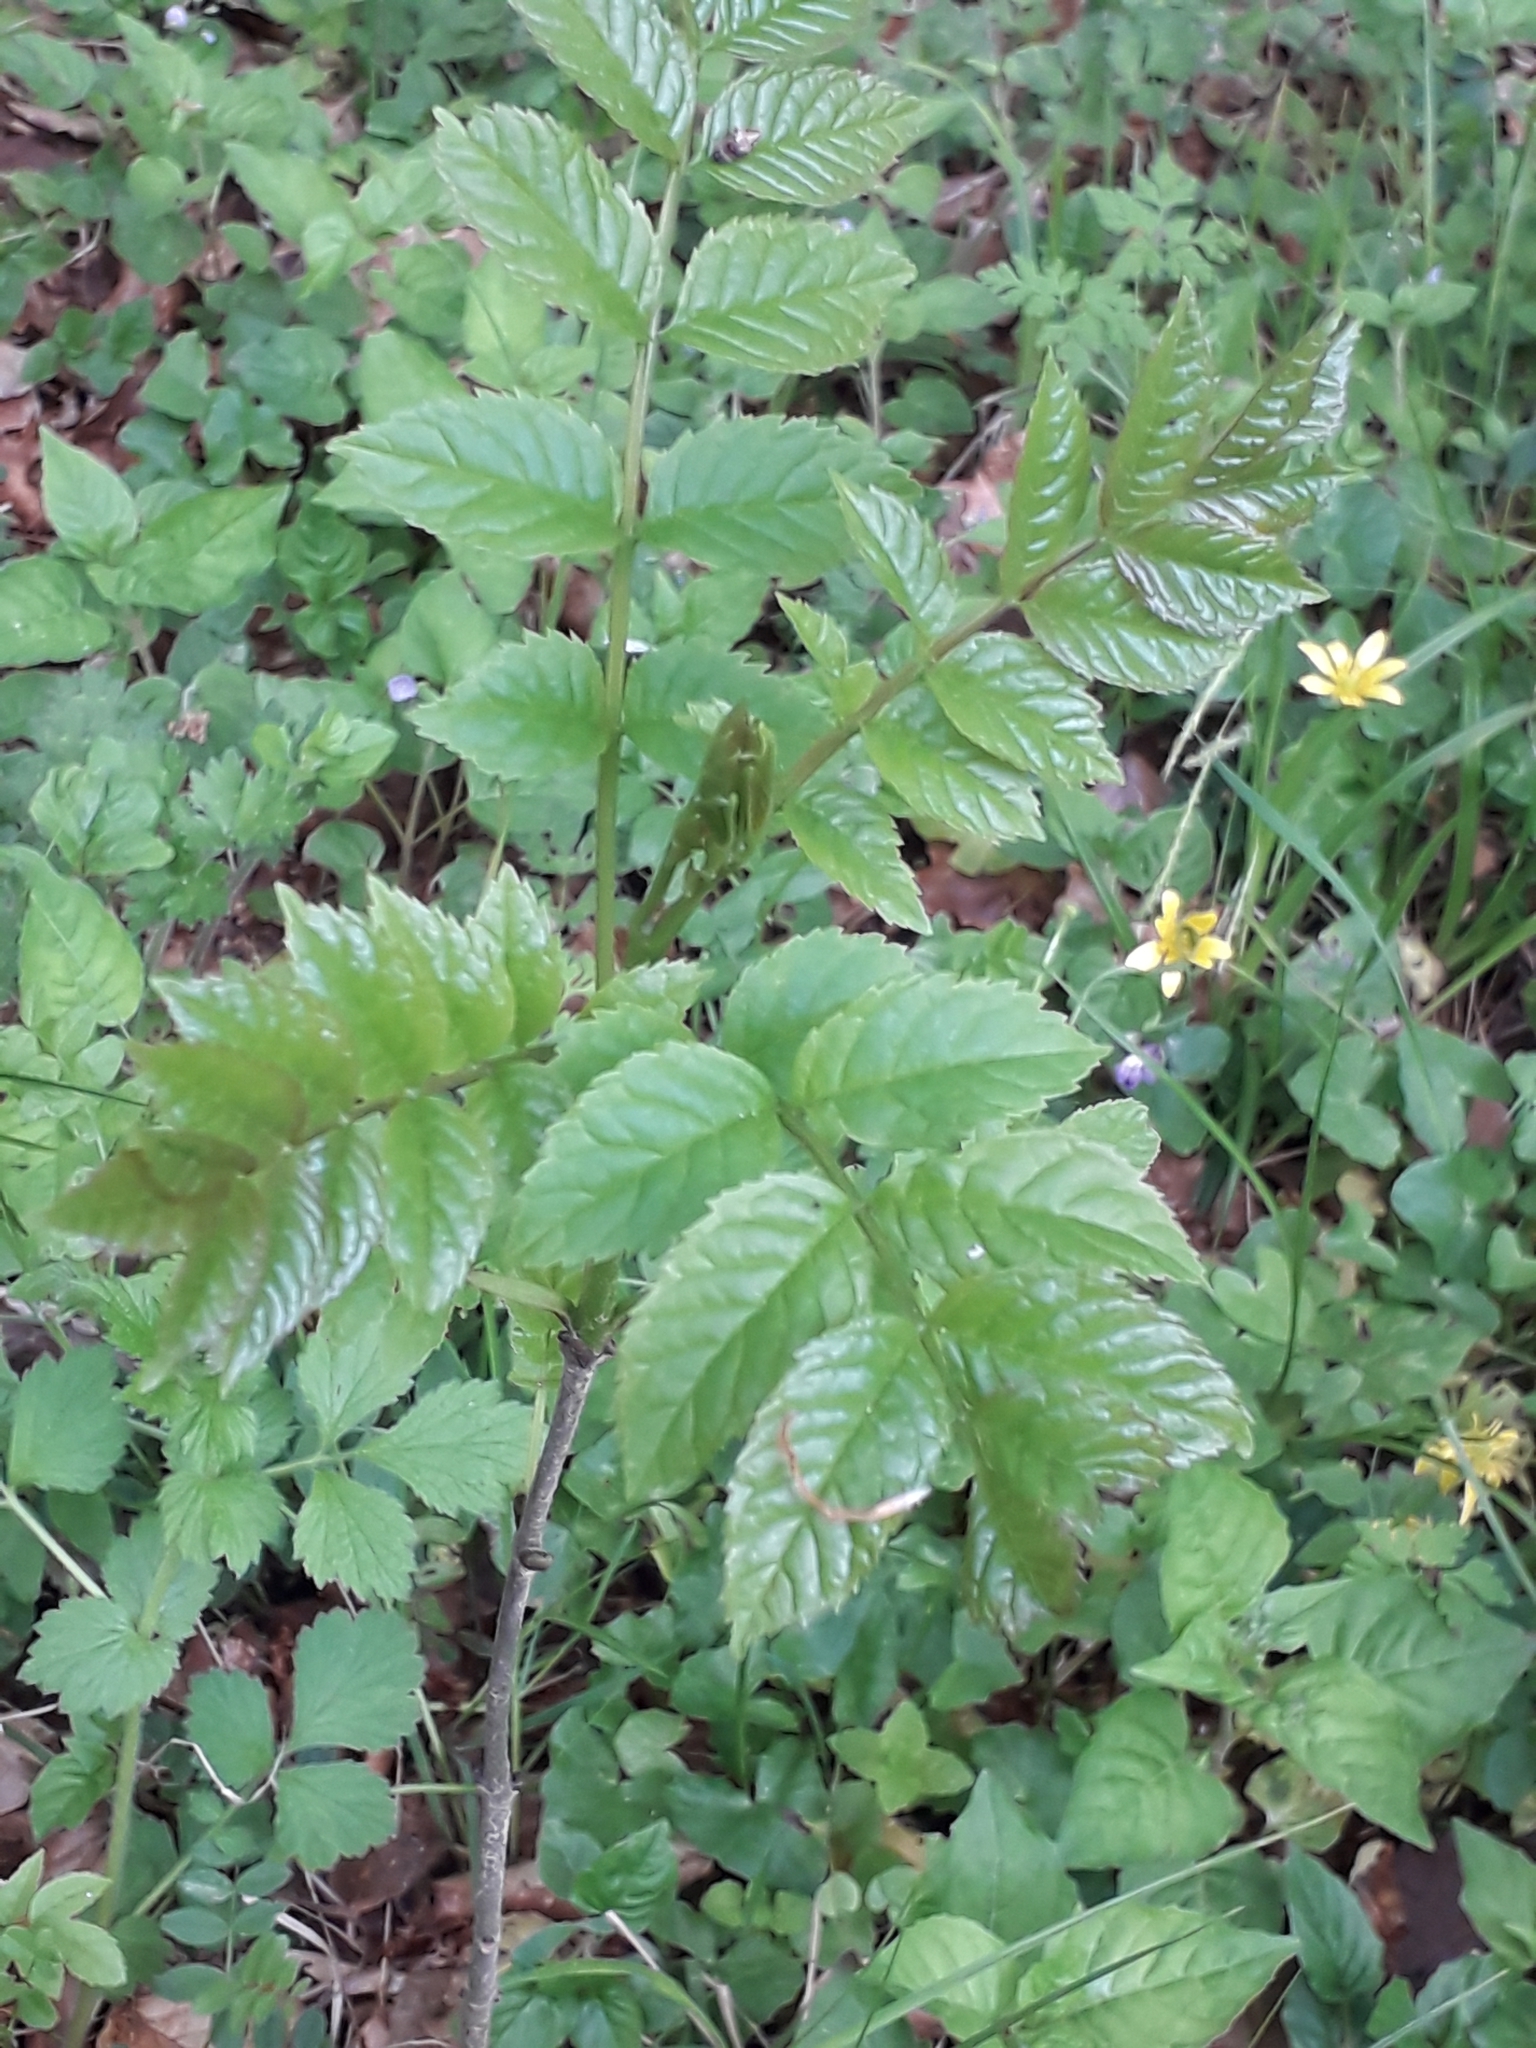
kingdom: Plantae
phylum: Tracheophyta
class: Magnoliopsida
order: Lamiales
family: Oleaceae
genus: Fraxinus
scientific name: Fraxinus excelsior
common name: European ash
